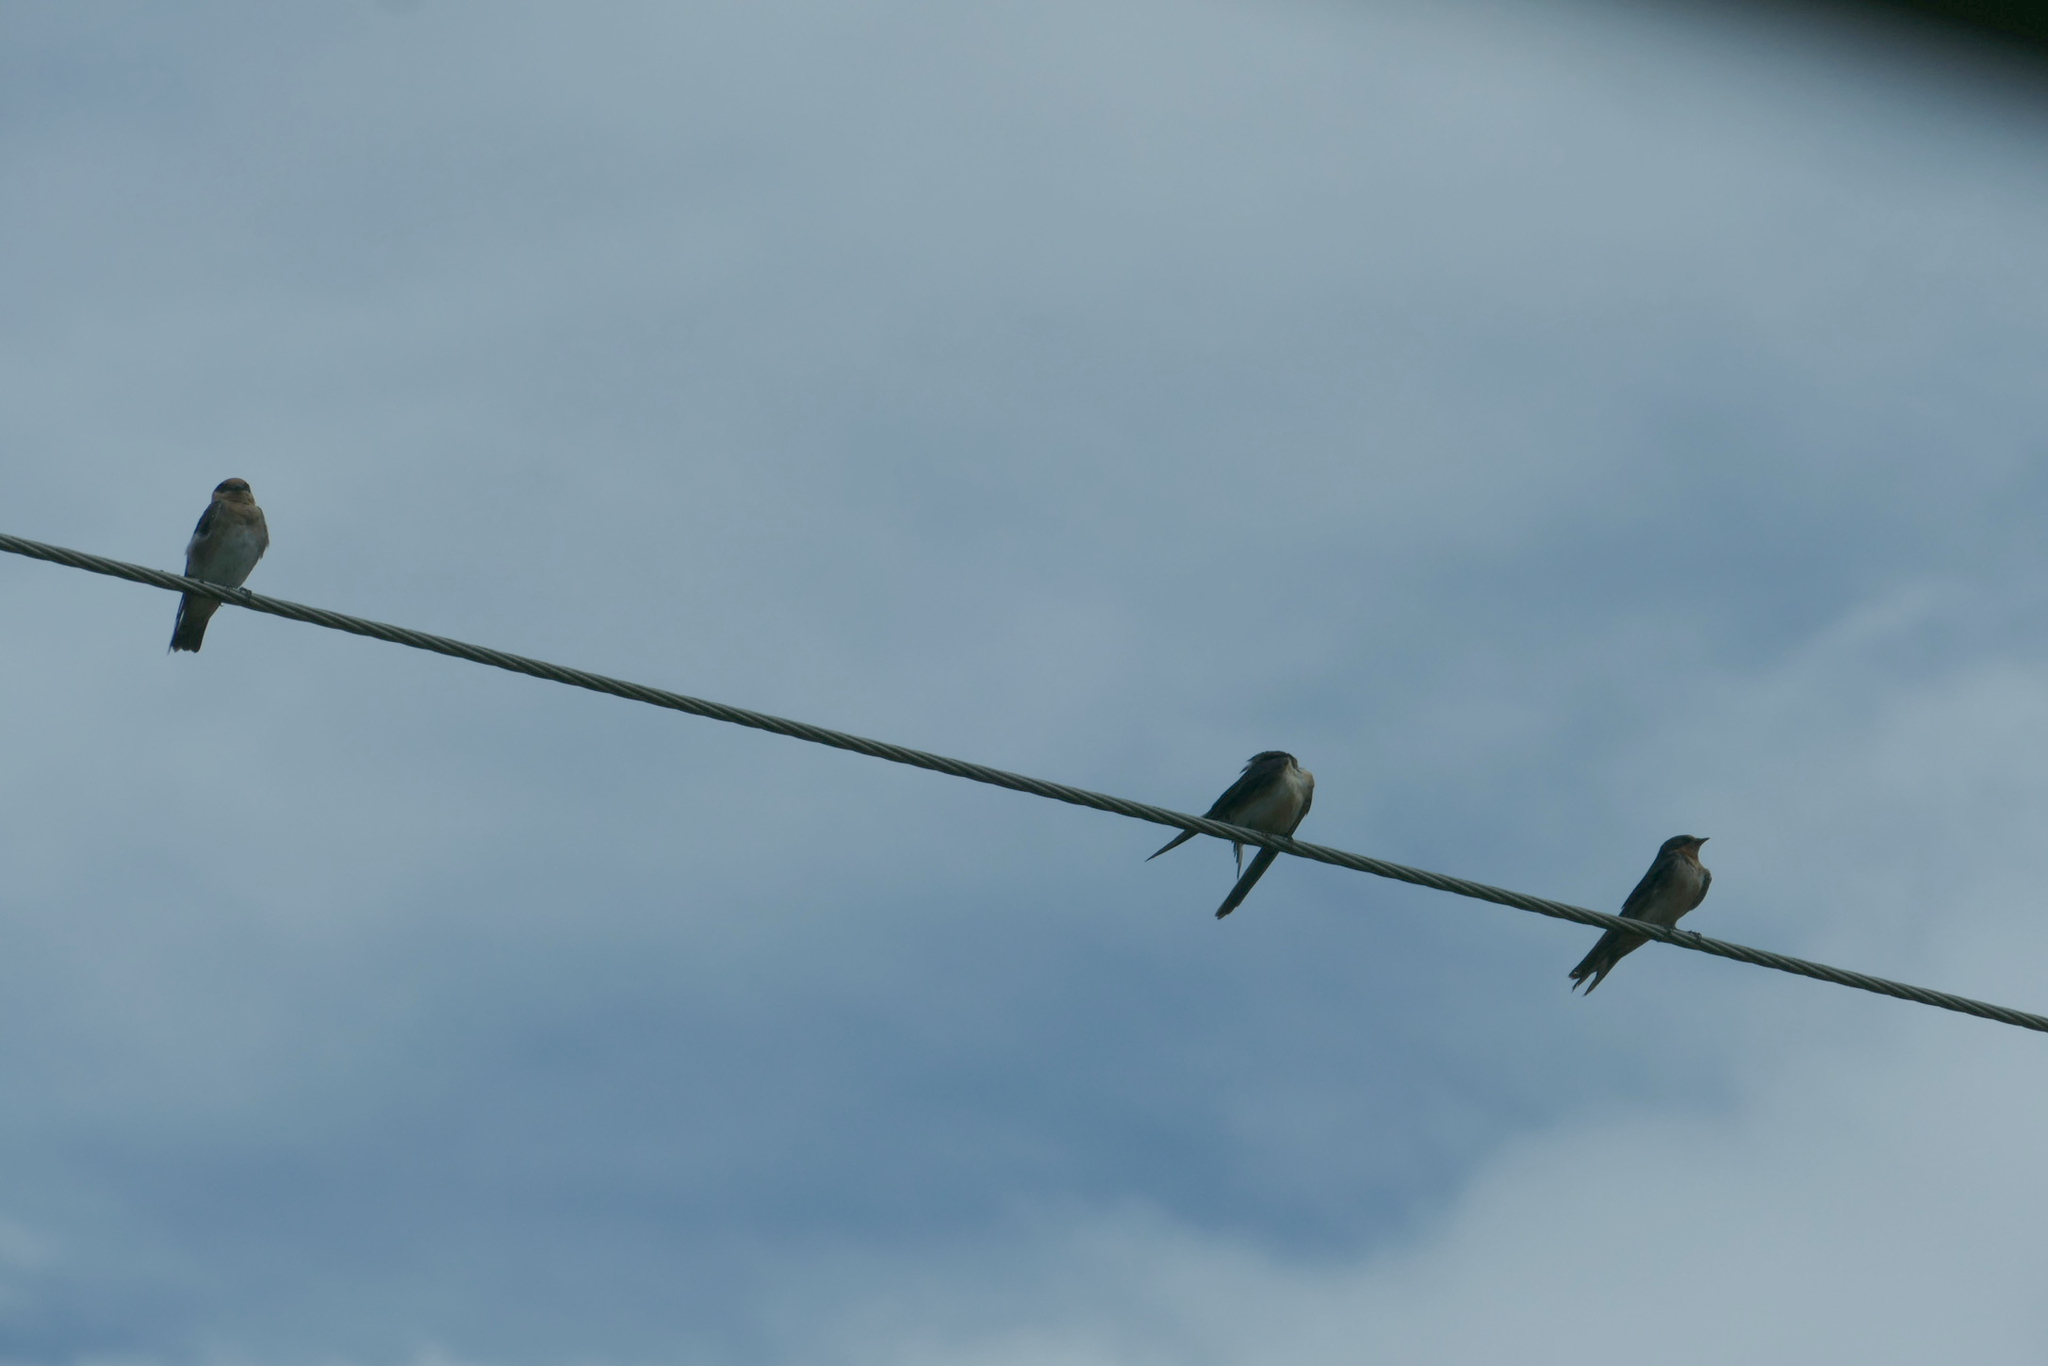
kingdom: Animalia
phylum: Chordata
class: Aves
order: Passeriformes
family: Hirundinidae
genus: Hirundo
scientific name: Hirundo rustica
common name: Barn swallow
